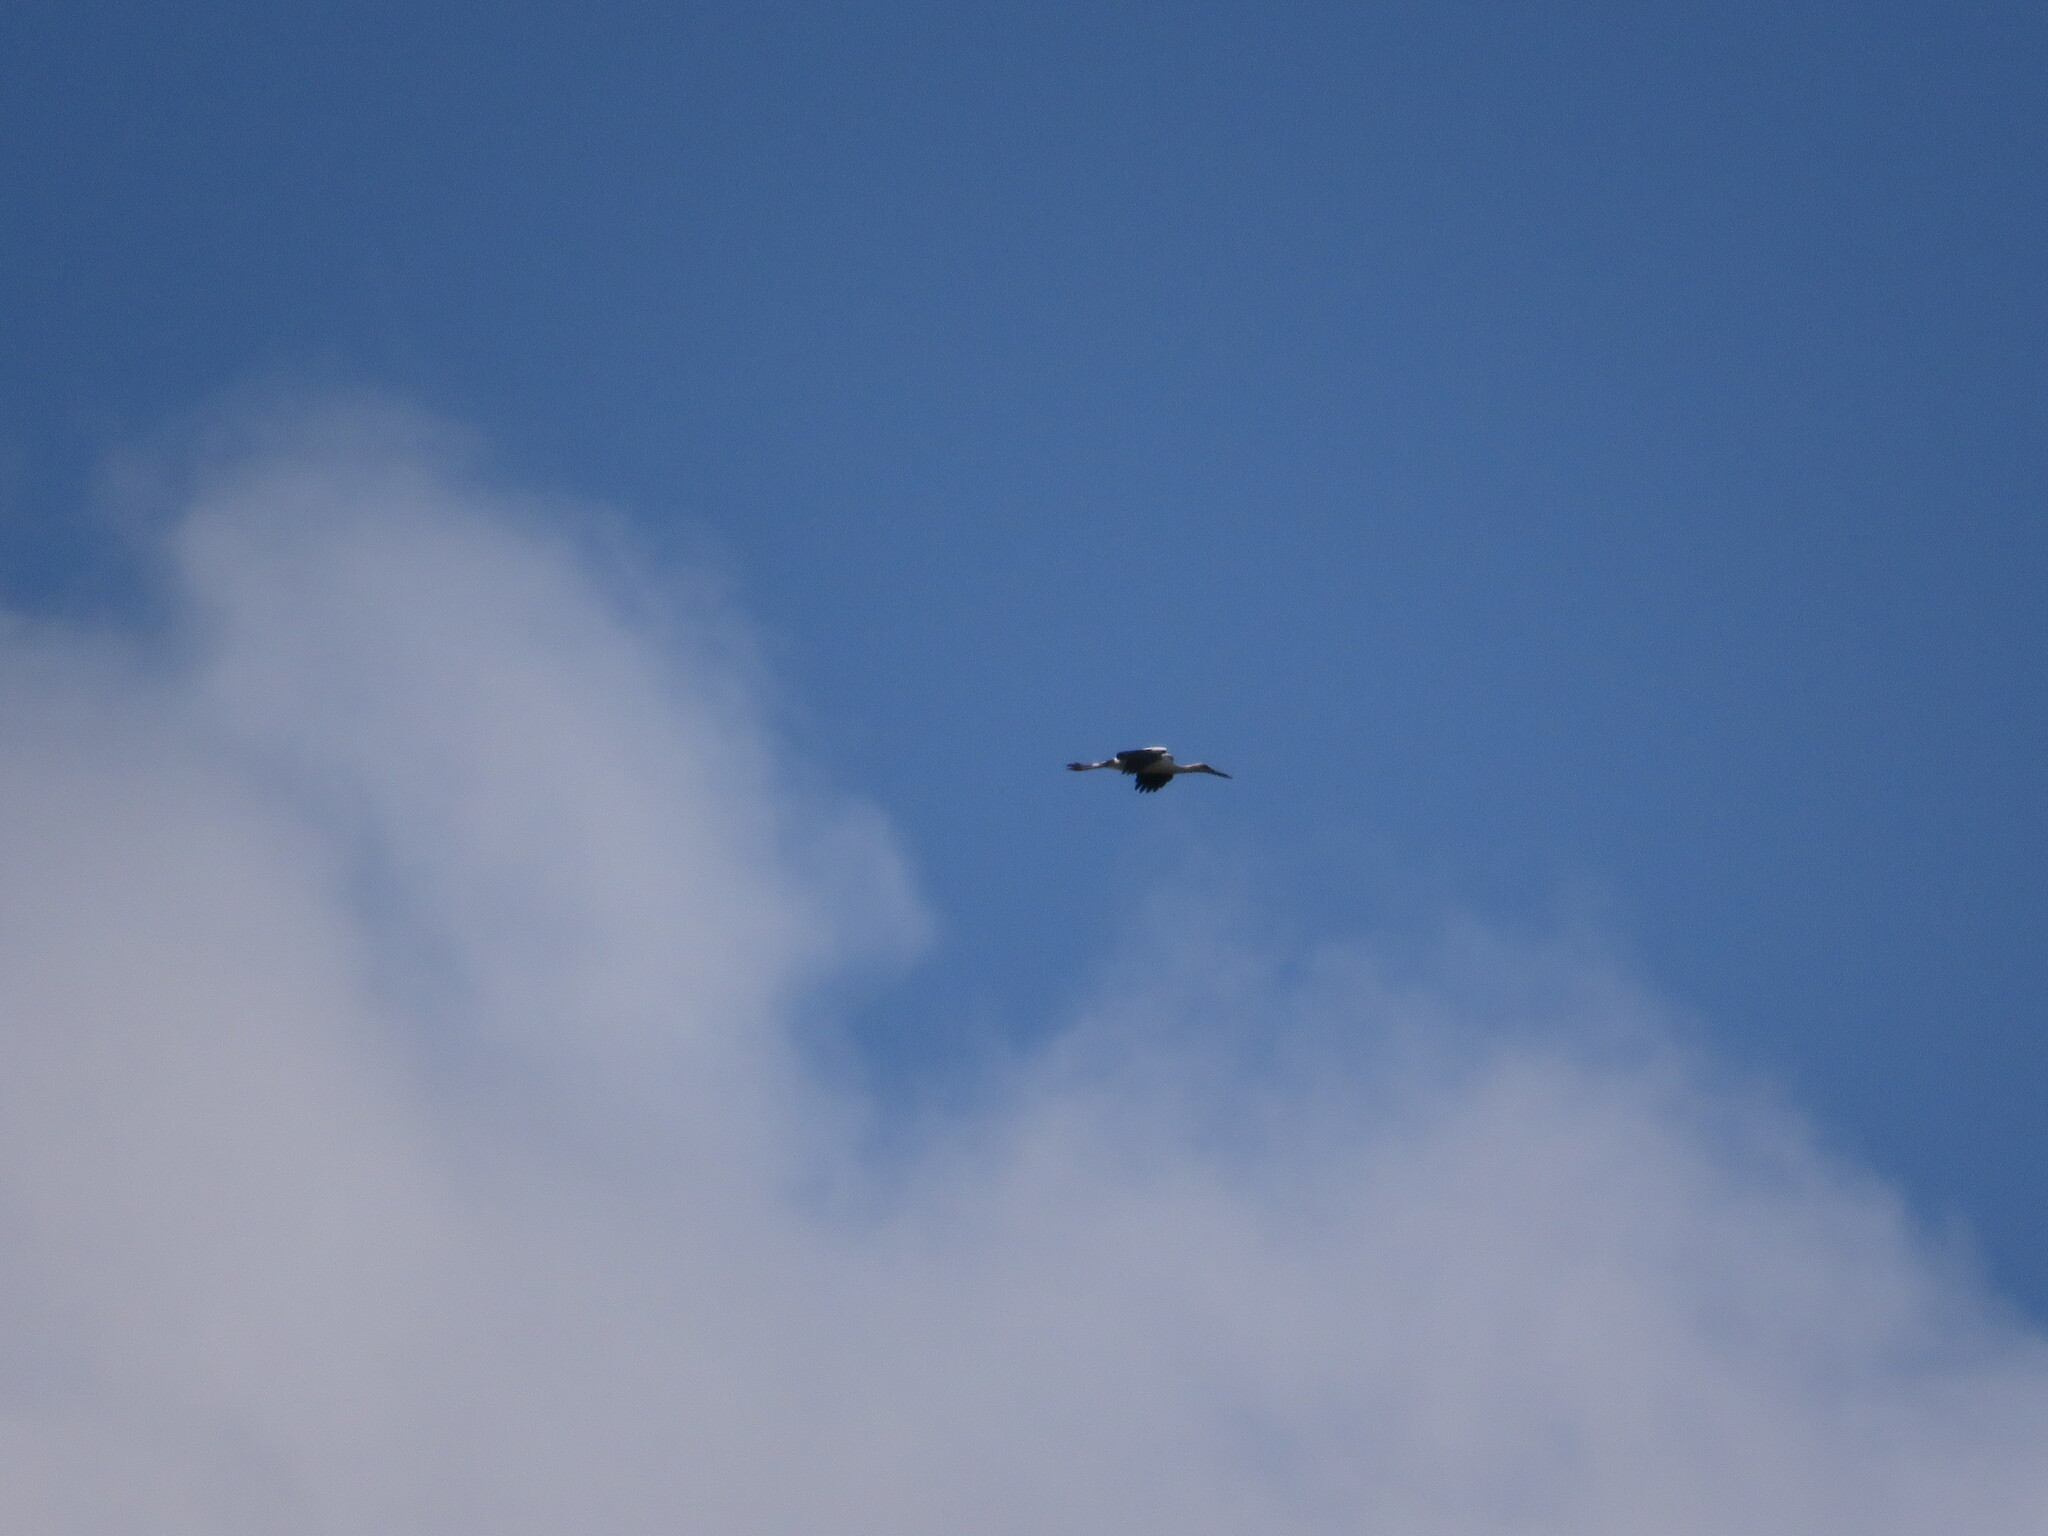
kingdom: Animalia
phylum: Chordata
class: Aves
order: Ciconiiformes
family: Ciconiidae
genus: Ciconia
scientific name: Ciconia maguari
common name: Maguari stork
